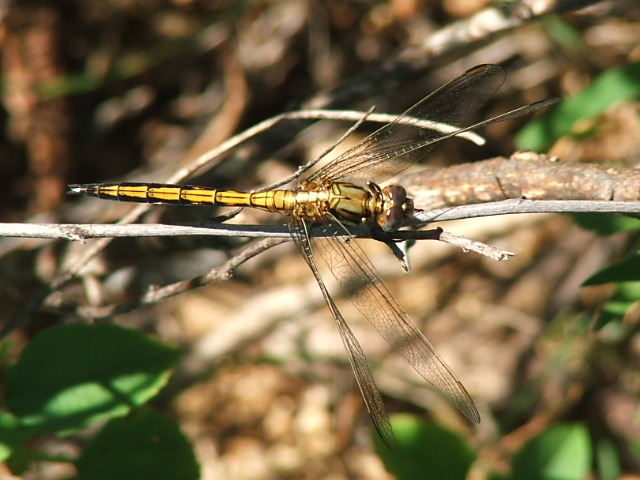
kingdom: Animalia
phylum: Arthropoda
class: Insecta
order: Odonata
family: Libellulidae
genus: Orthetrum
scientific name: Orthetrum machadoi
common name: Highland skimmer
